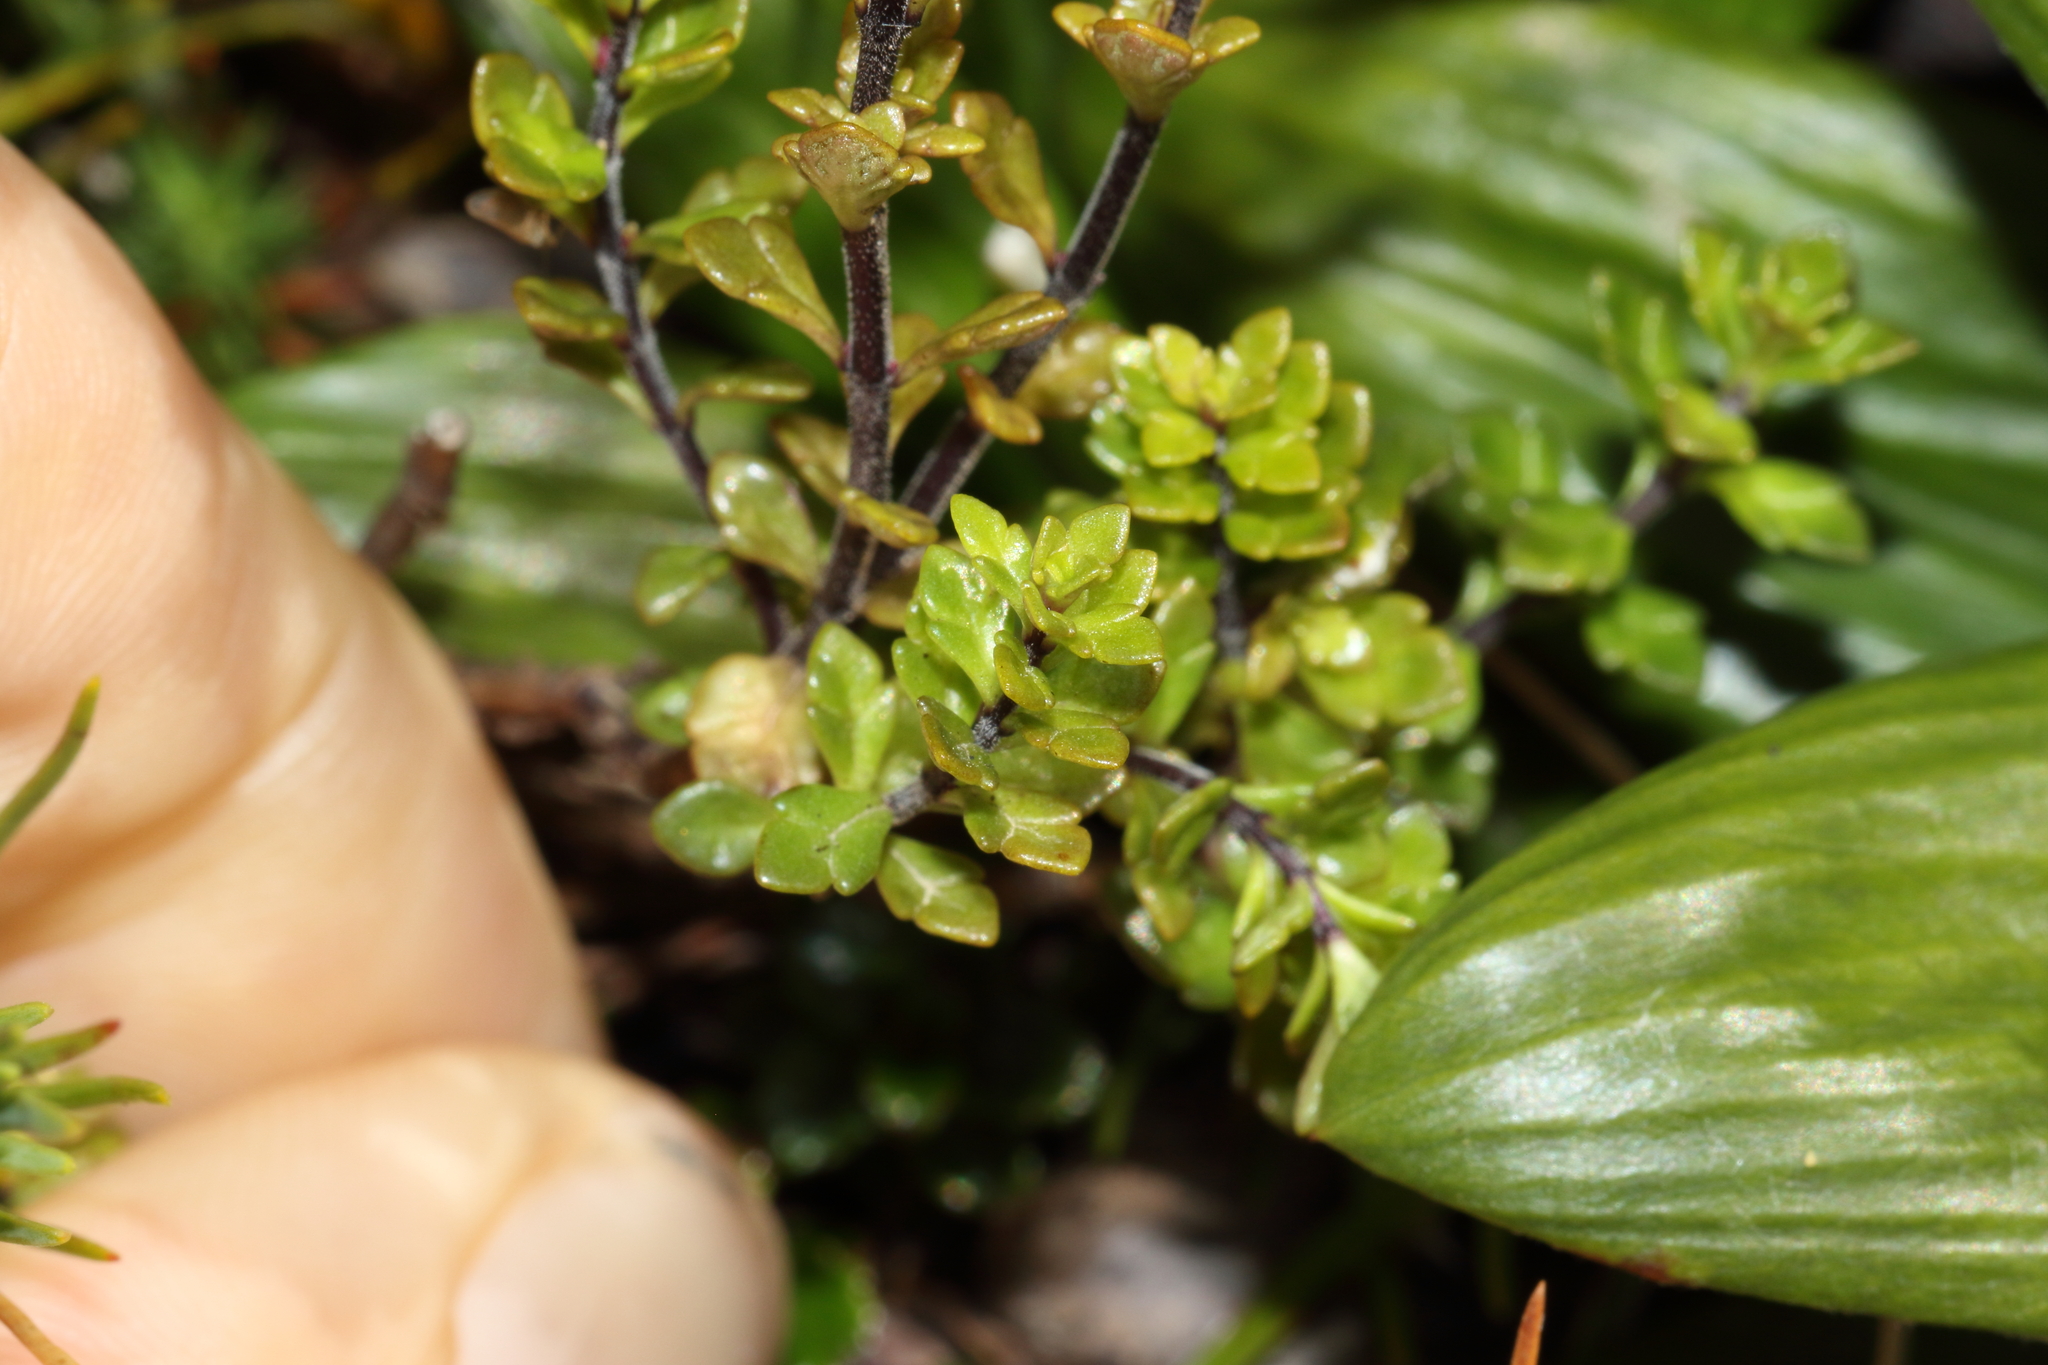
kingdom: Plantae
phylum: Tracheophyta
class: Magnoliopsida
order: Lamiales
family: Orobanchaceae
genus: Euphrasia
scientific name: Euphrasia cuneata
